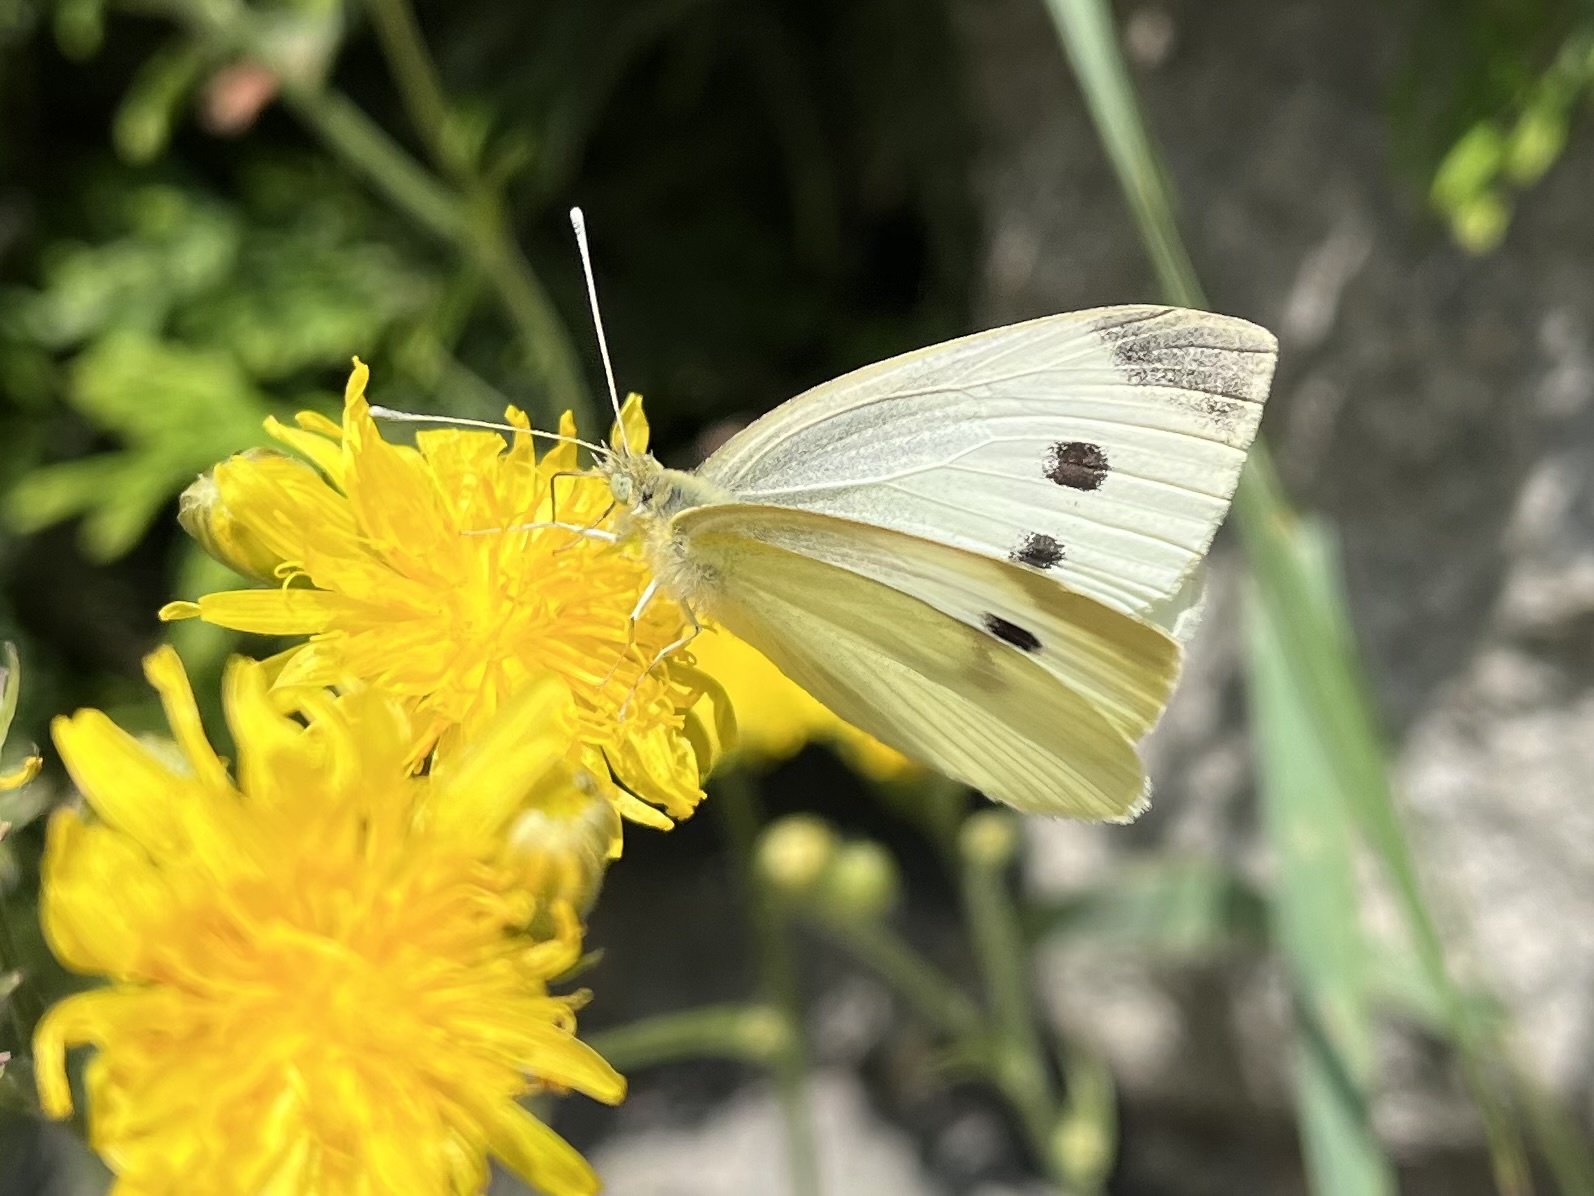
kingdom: Animalia
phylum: Arthropoda
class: Insecta
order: Lepidoptera
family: Pieridae
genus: Pieris
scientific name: Pieris rapae
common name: Small white
